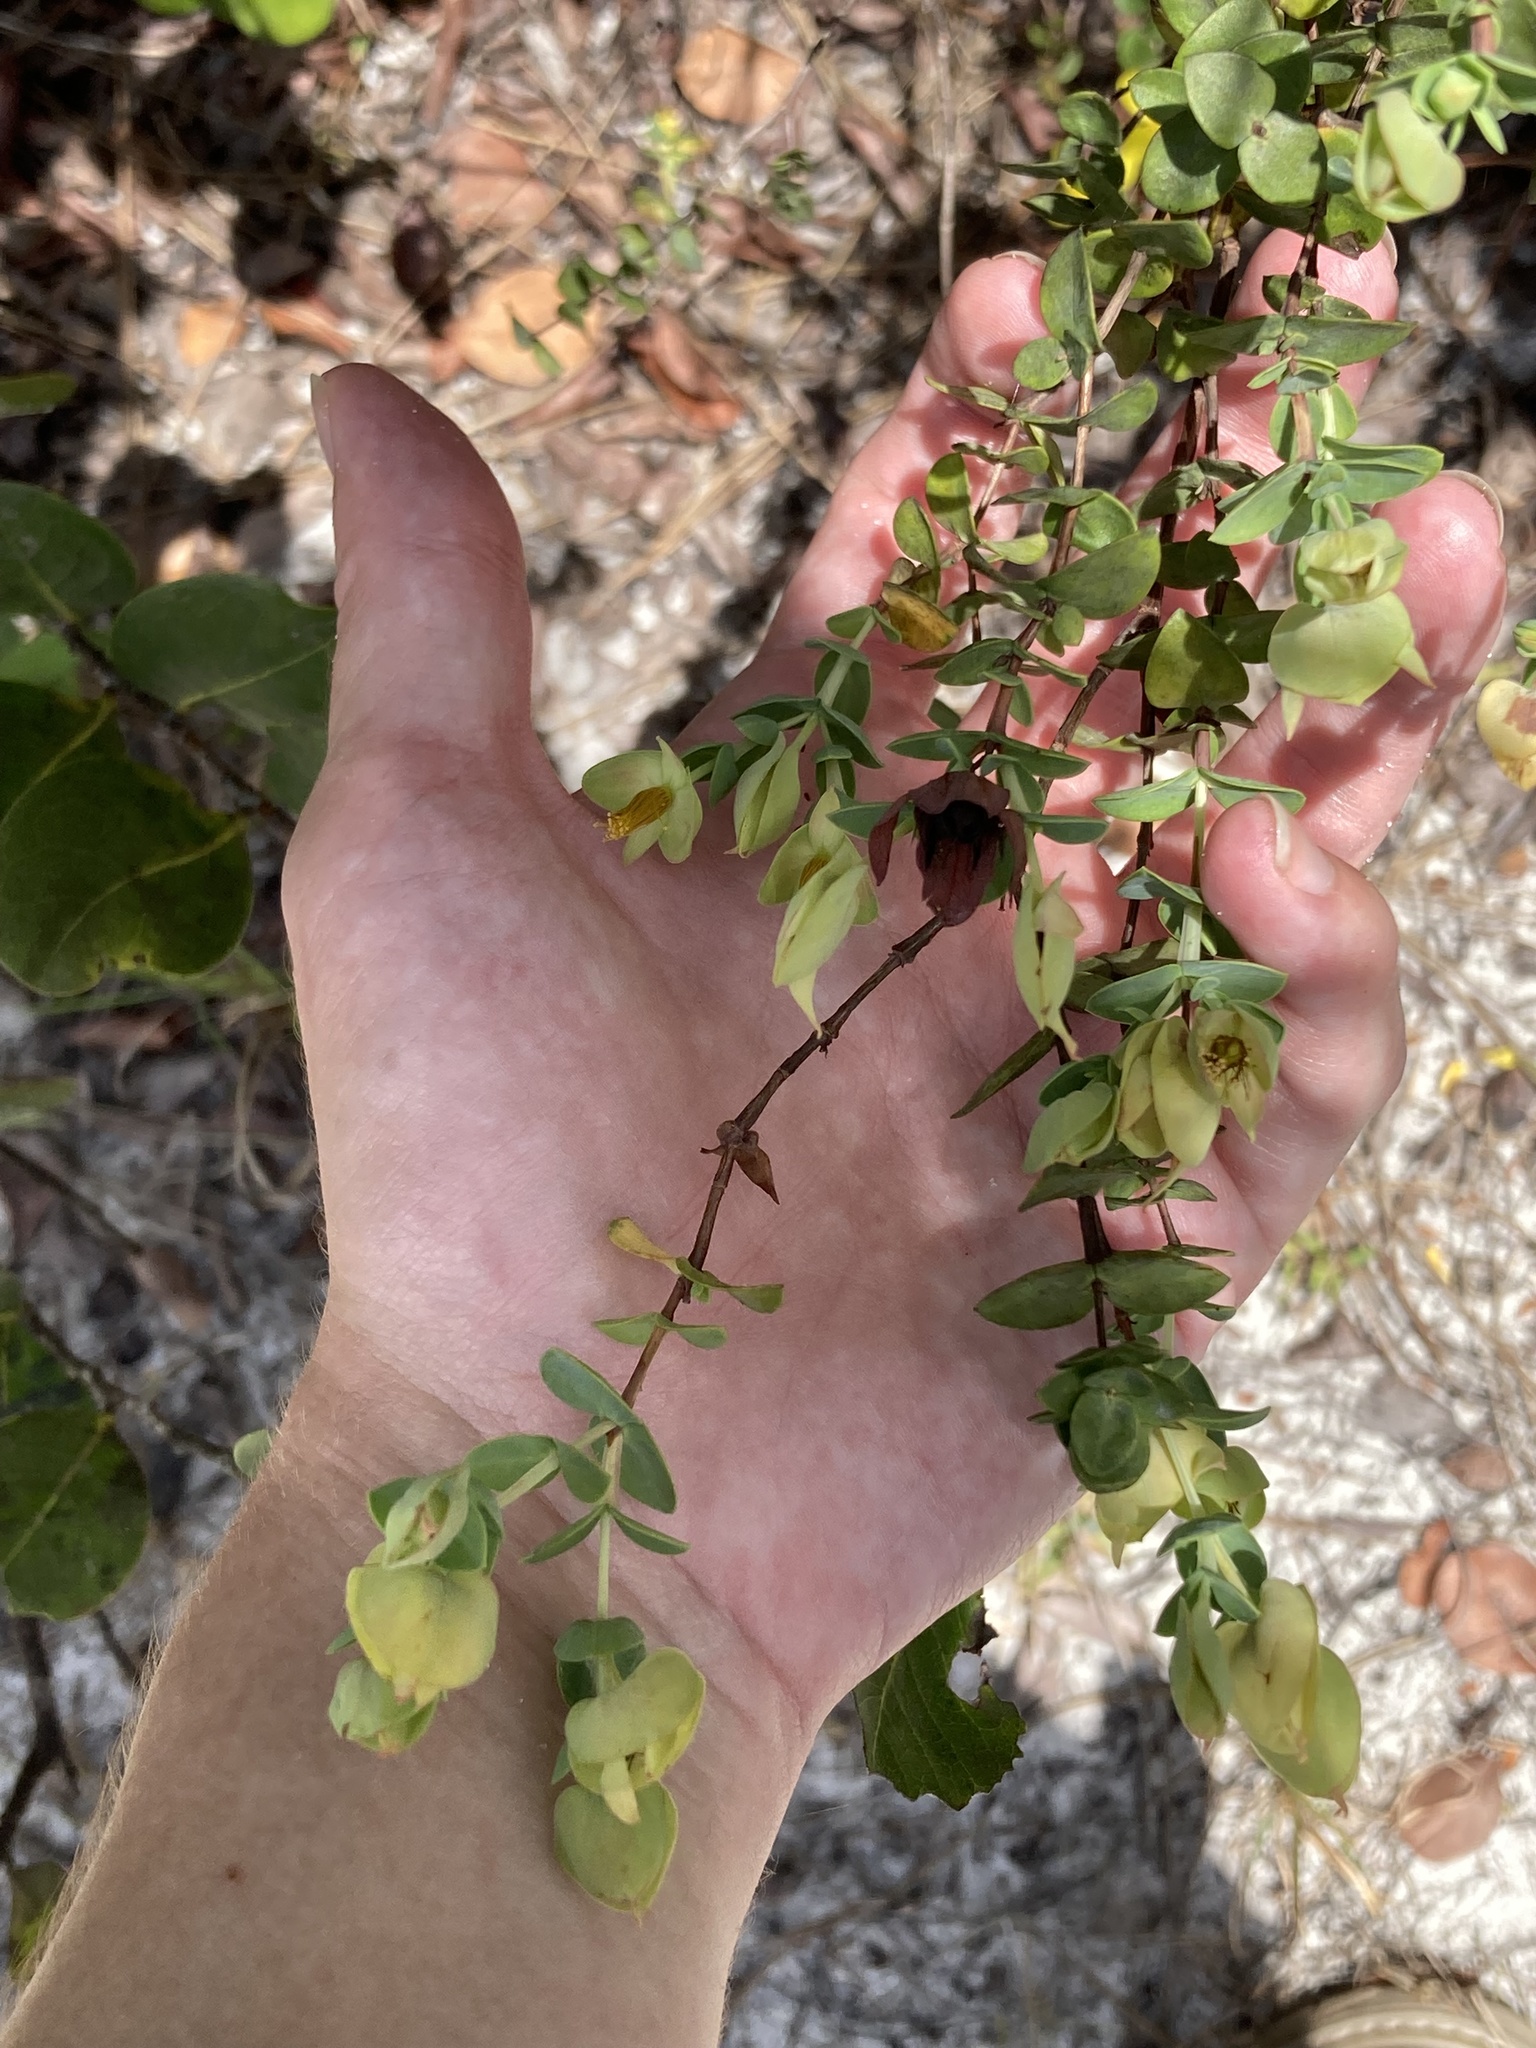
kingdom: Plantae
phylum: Tracheophyta
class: Magnoliopsida
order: Malpighiales
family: Hypericaceae
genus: Hypericum
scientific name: Hypericum tetrapetalum
